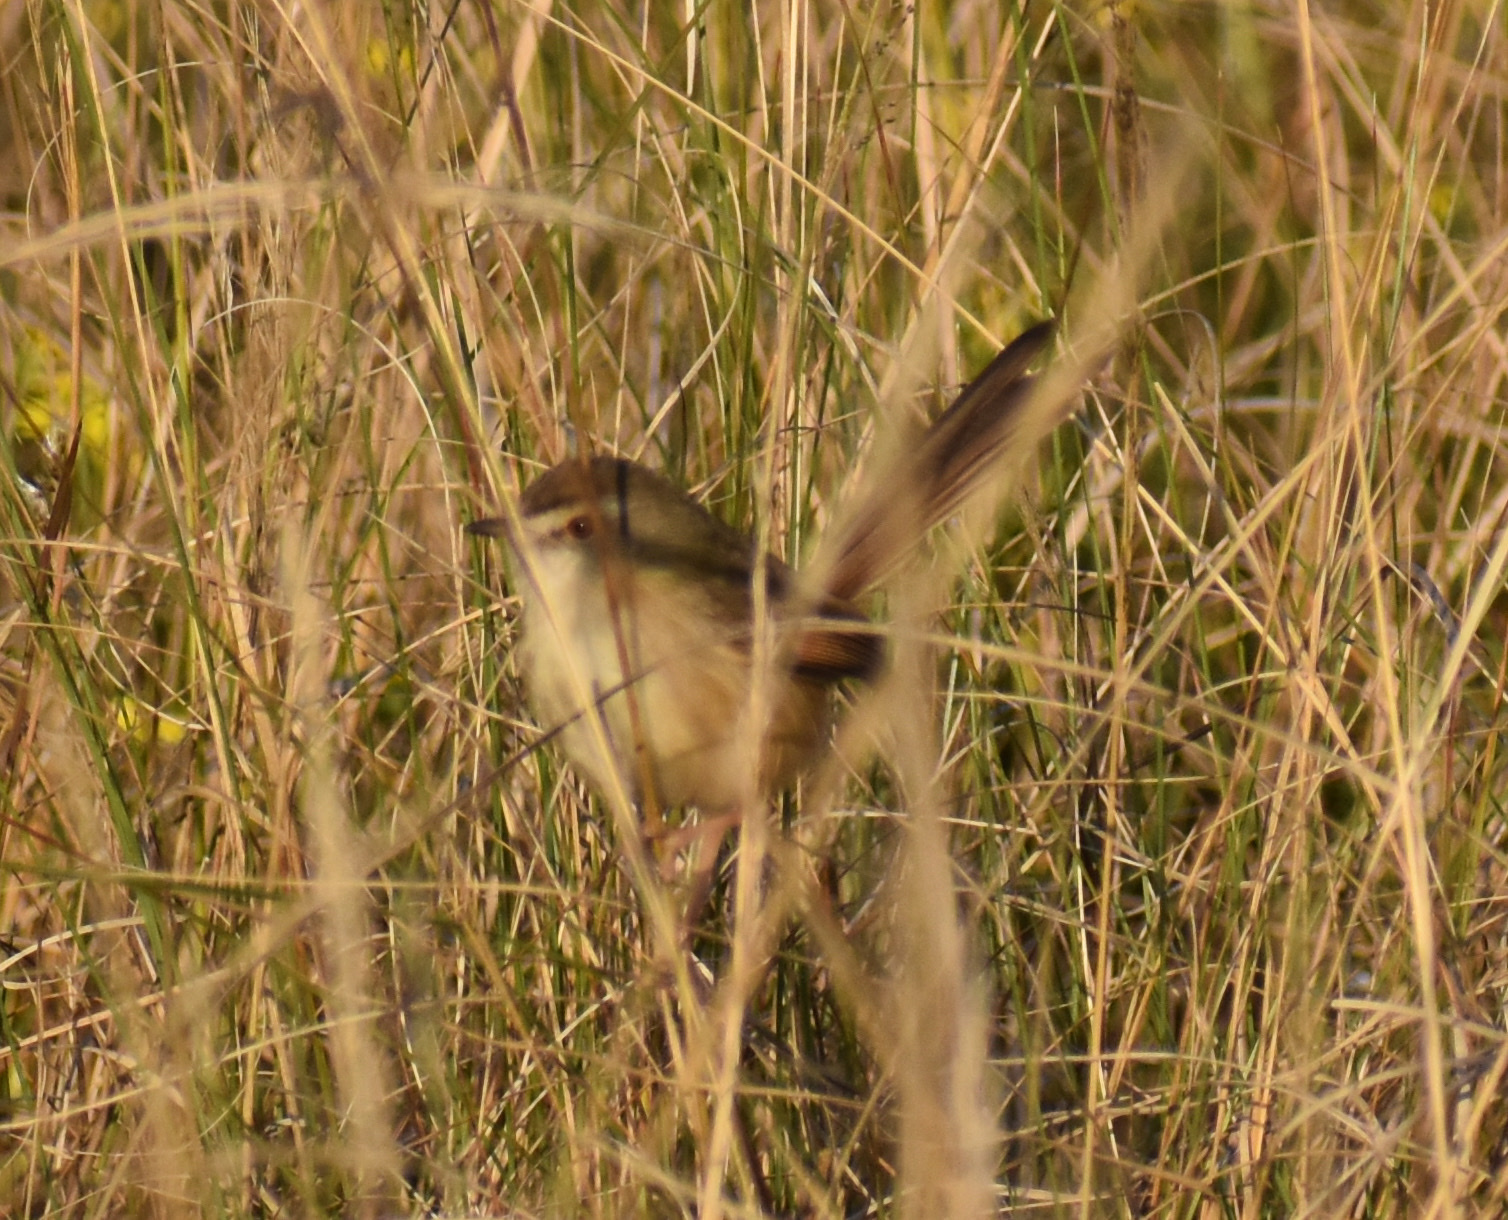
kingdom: Animalia
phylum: Chordata
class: Aves
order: Passeriformes
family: Cisticolidae
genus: Prinia
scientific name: Prinia subflava
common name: Tawny-flanked prinia
